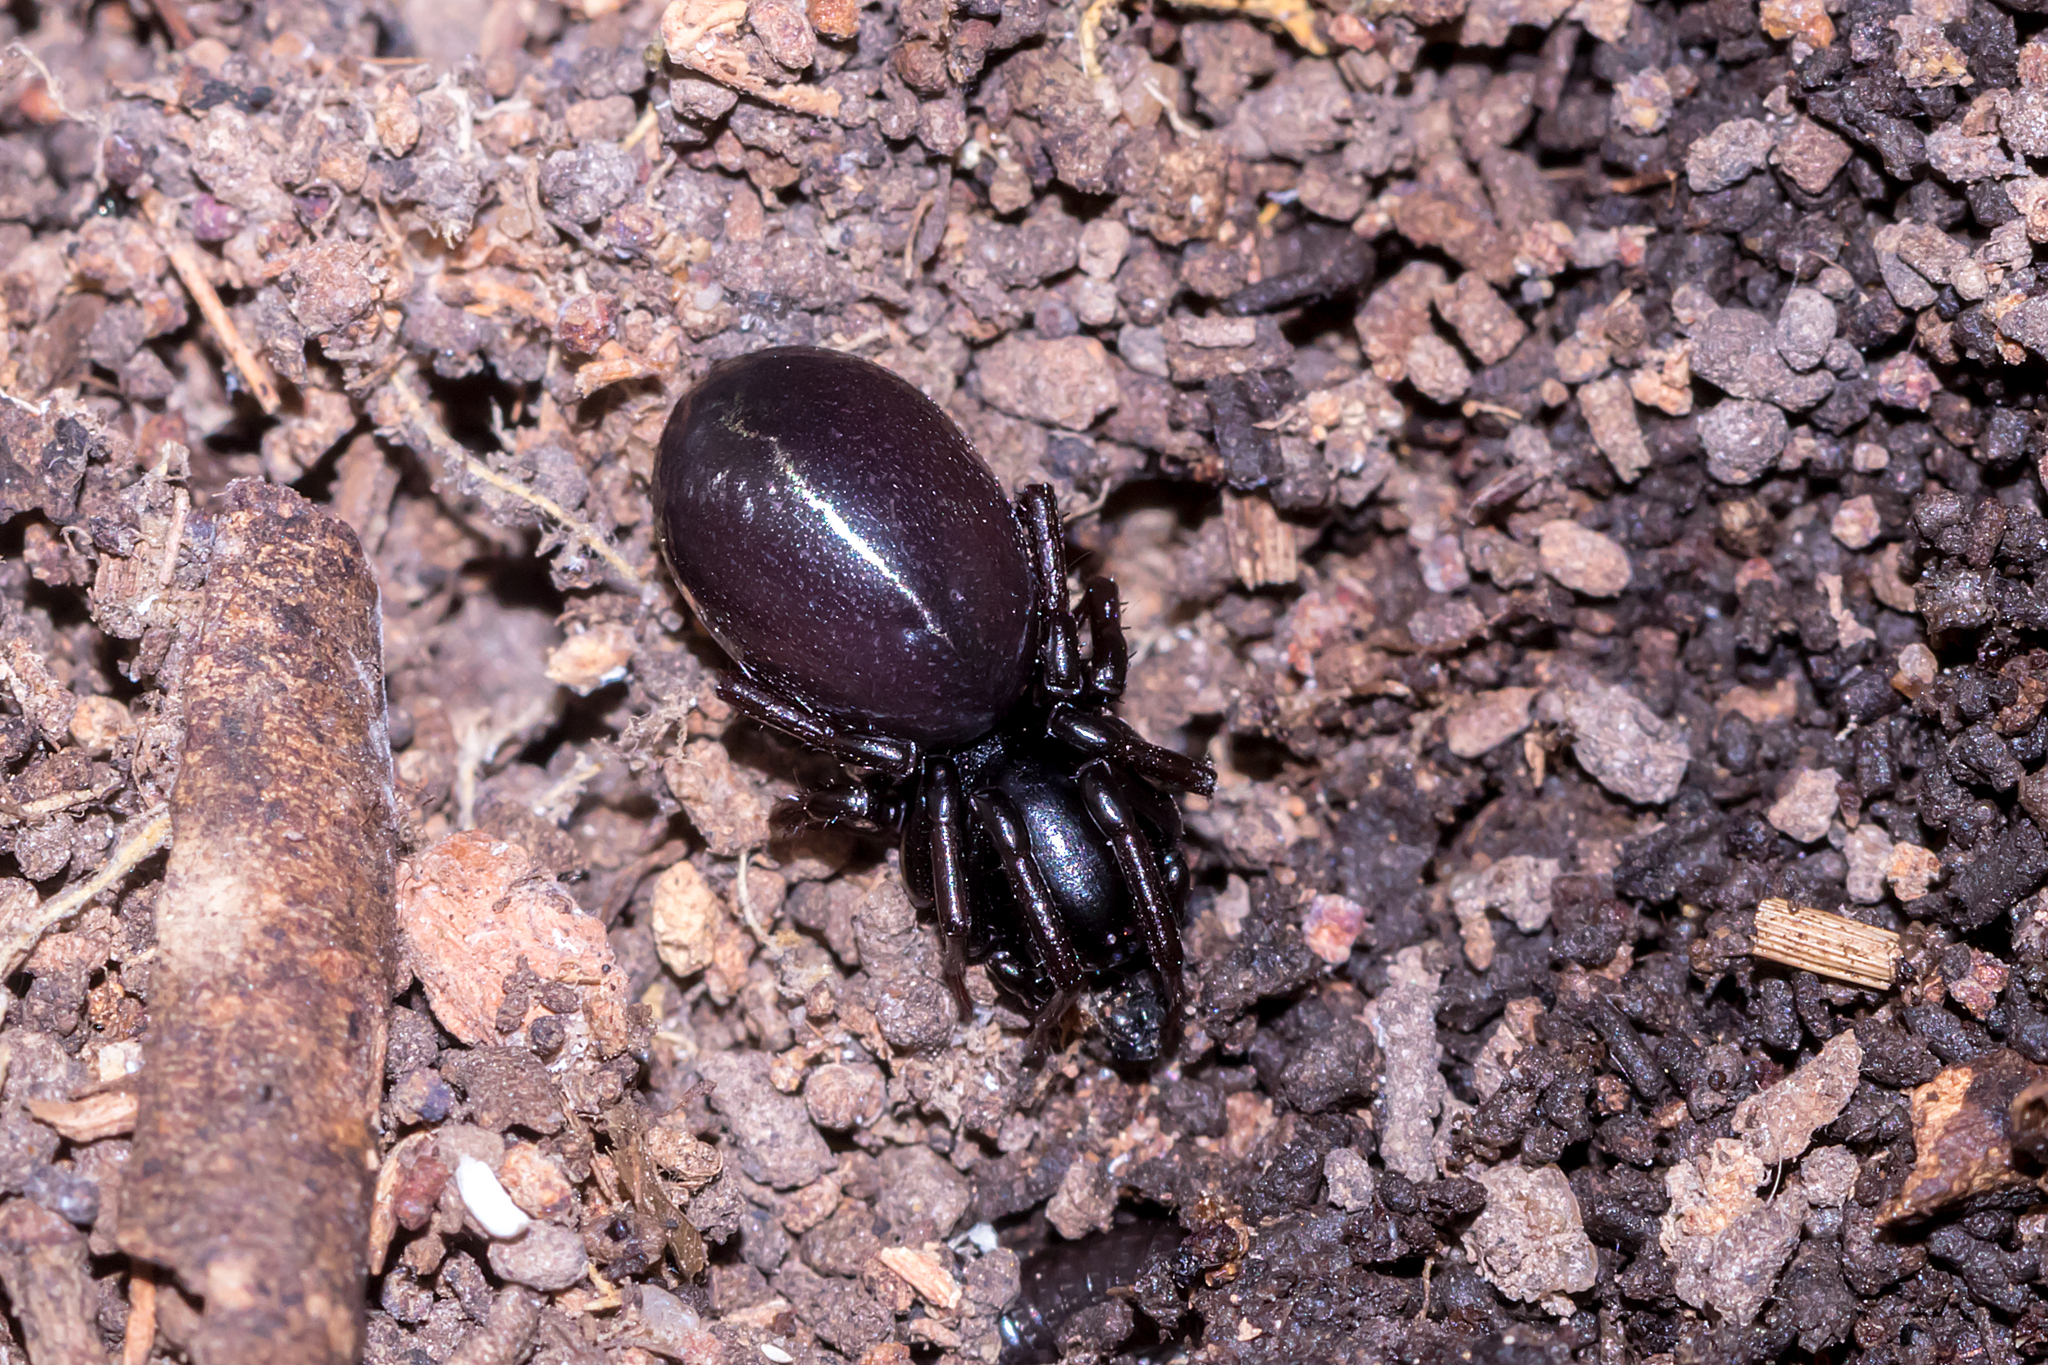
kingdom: Animalia
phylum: Arthropoda
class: Arachnida
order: Araneae
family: Zodariidae
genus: Storosa
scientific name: Storosa obscura
